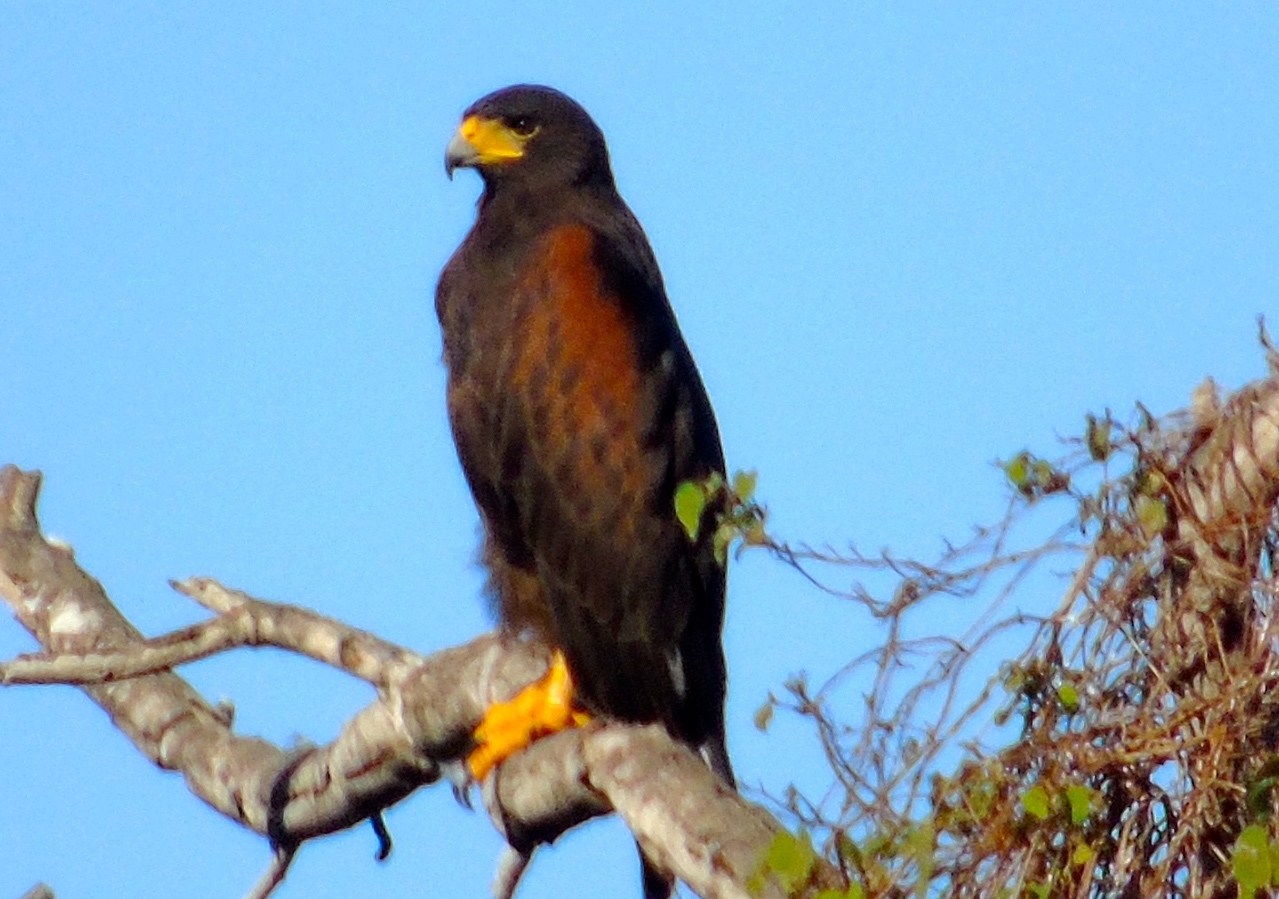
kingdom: Animalia
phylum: Chordata
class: Aves
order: Accipitriformes
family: Accipitridae
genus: Parabuteo
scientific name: Parabuteo unicinctus
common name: Harris's hawk
